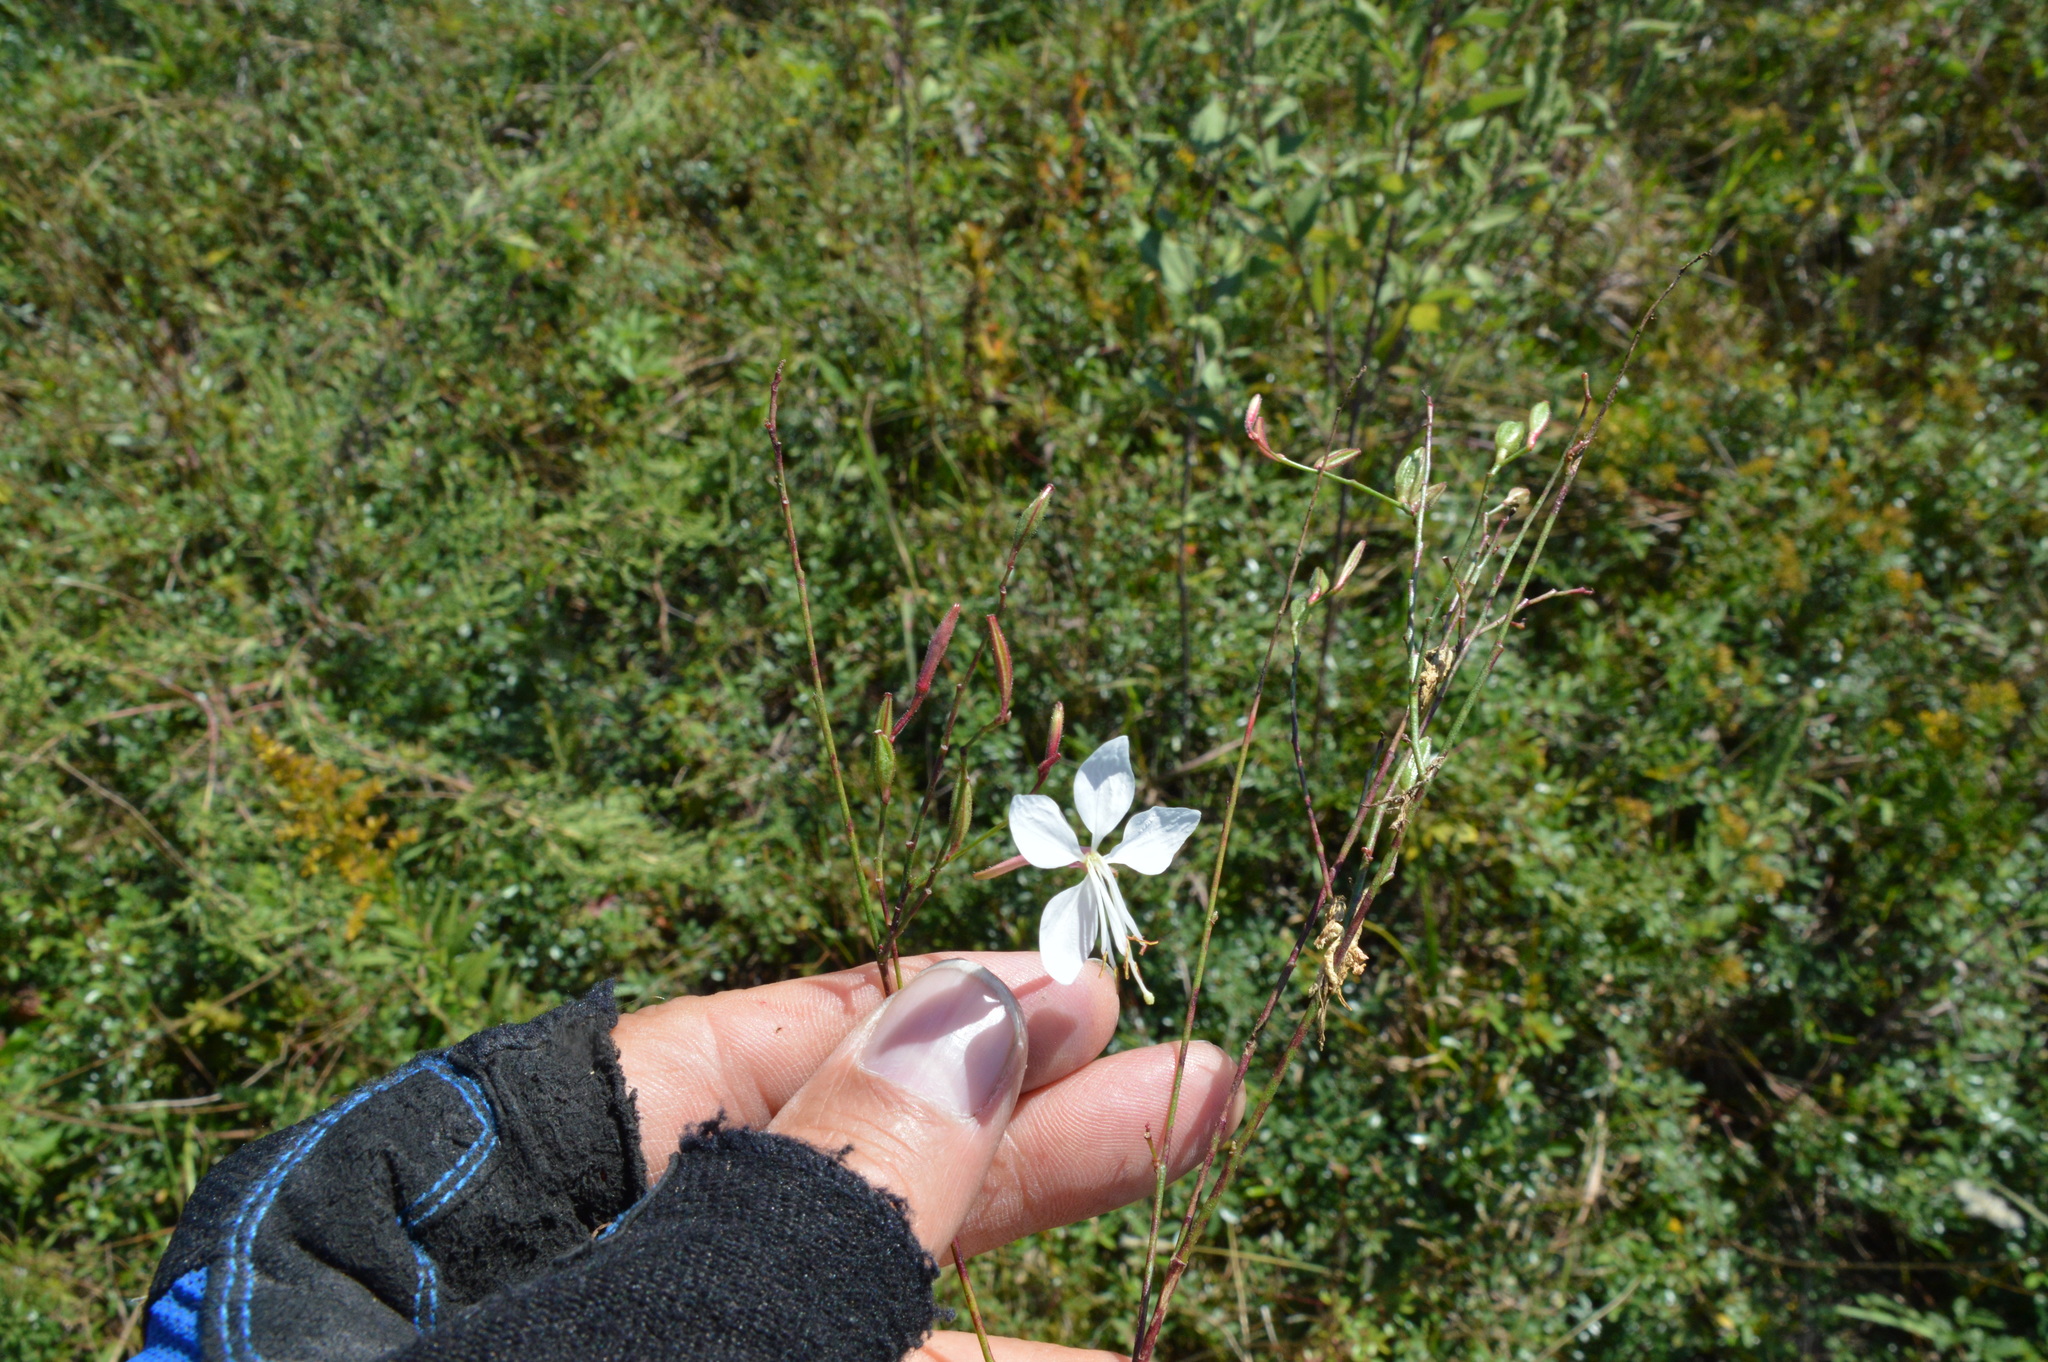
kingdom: Plantae
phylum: Tracheophyta
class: Magnoliopsida
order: Myrtales
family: Onagraceae
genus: Oenothera
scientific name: Oenothera lindheimeri
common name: Lindheimer's beeblossom
